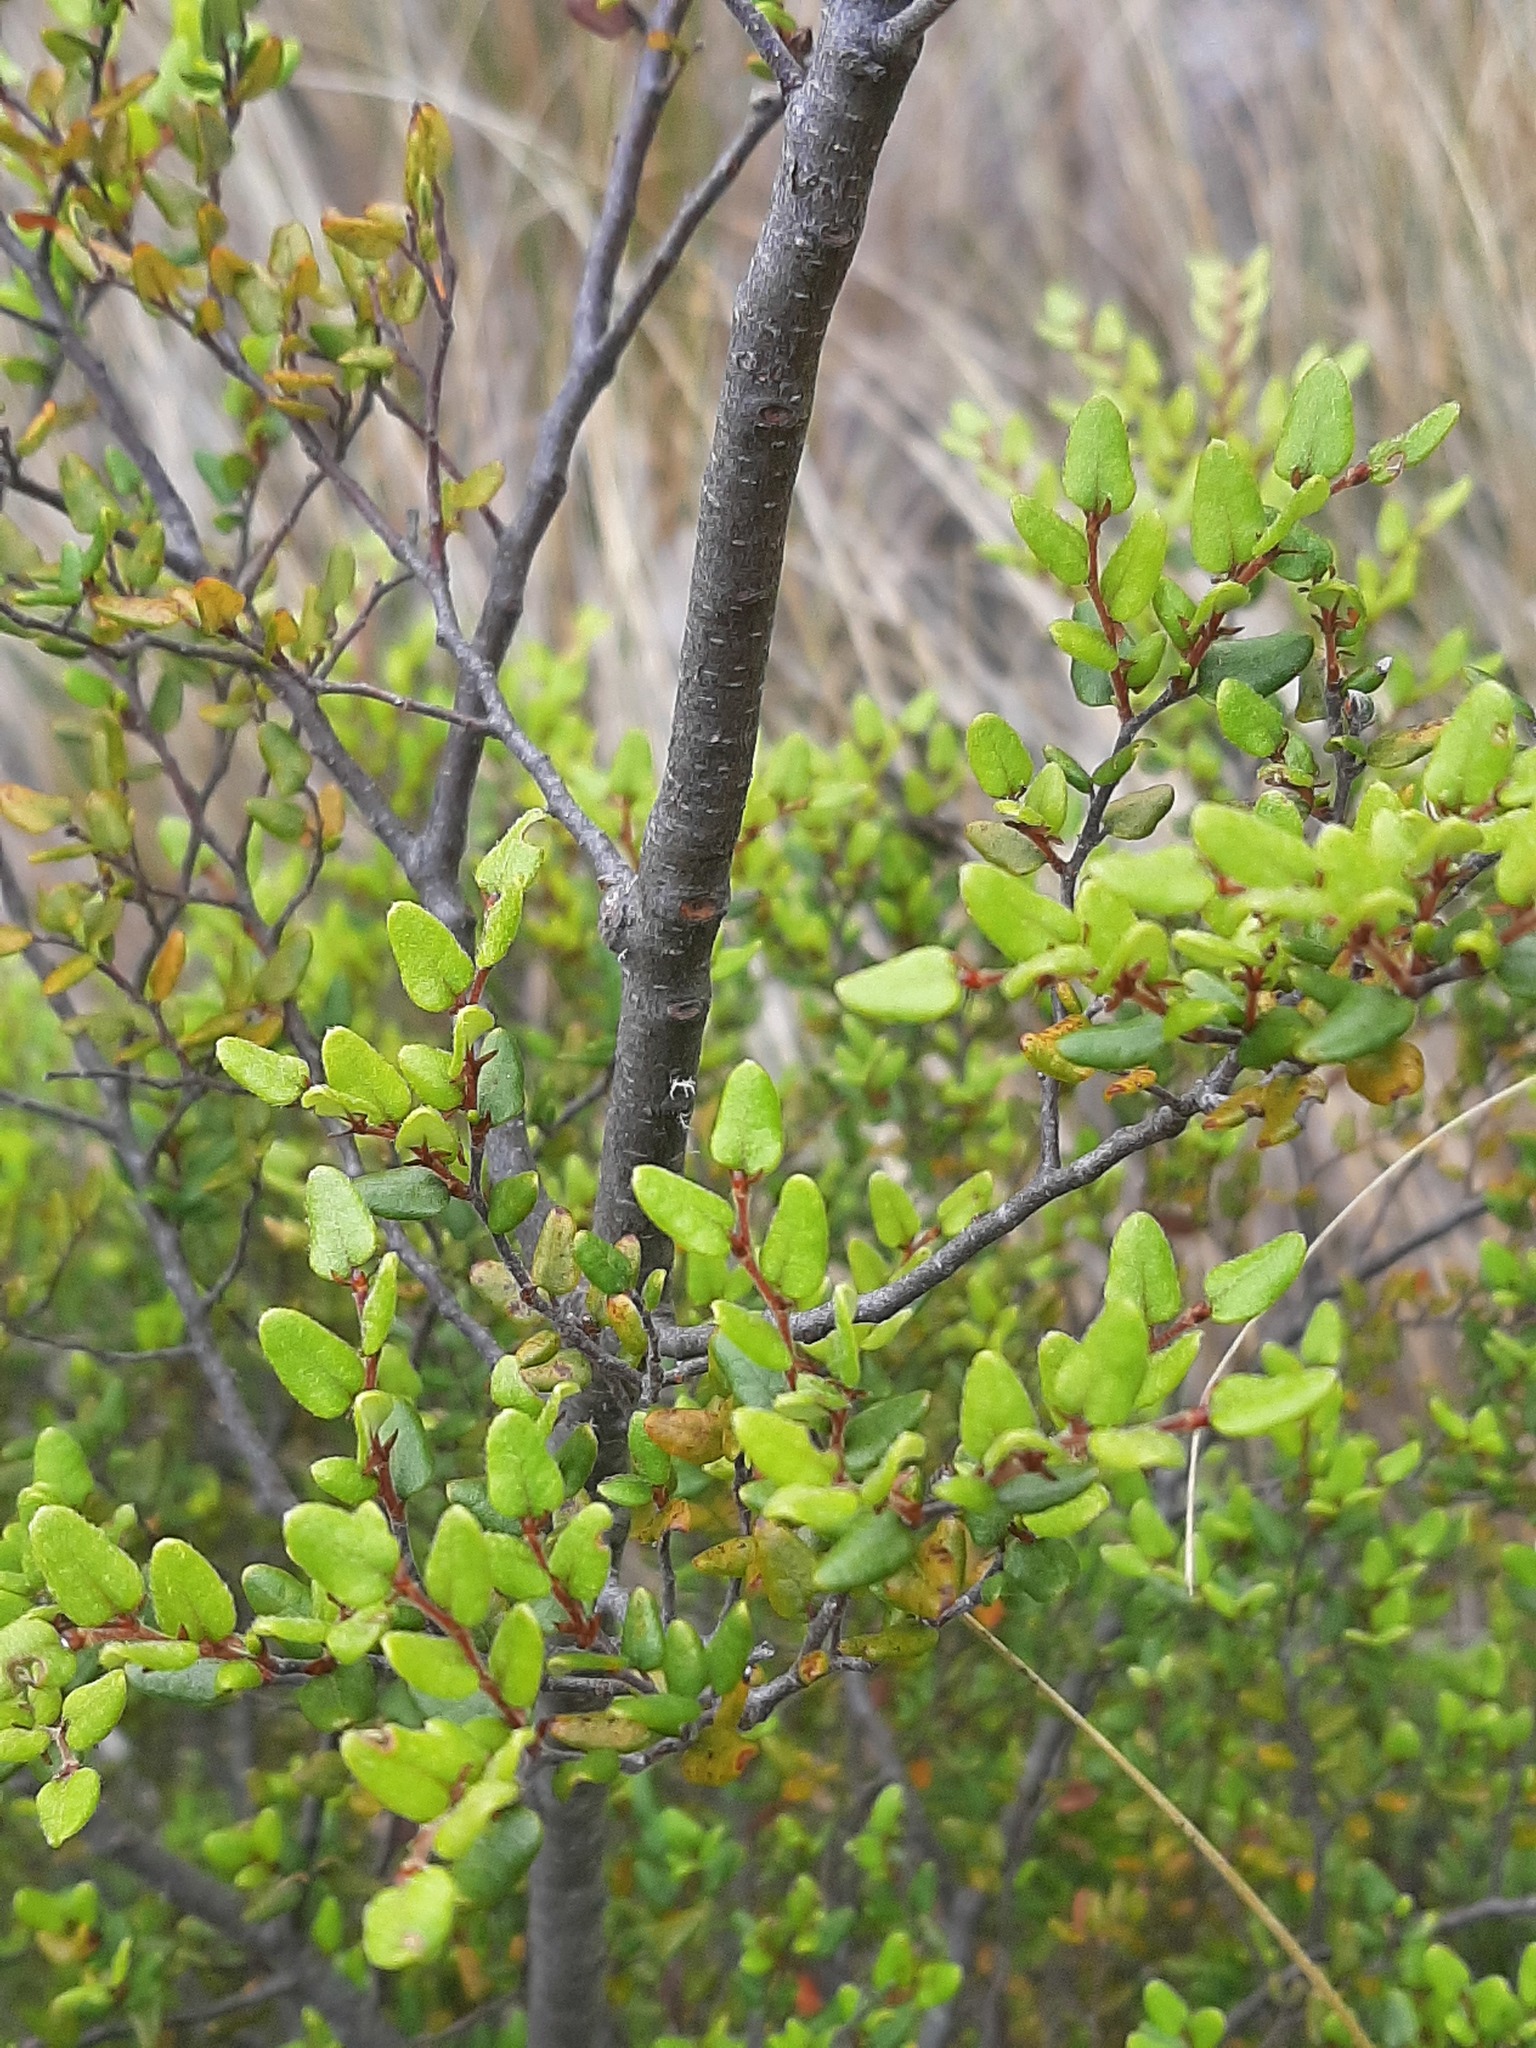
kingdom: Plantae
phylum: Tracheophyta
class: Magnoliopsida
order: Fagales
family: Nothofagaceae
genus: Nothofagus
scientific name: Nothofagus cliffortioides
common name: Mountain beech
